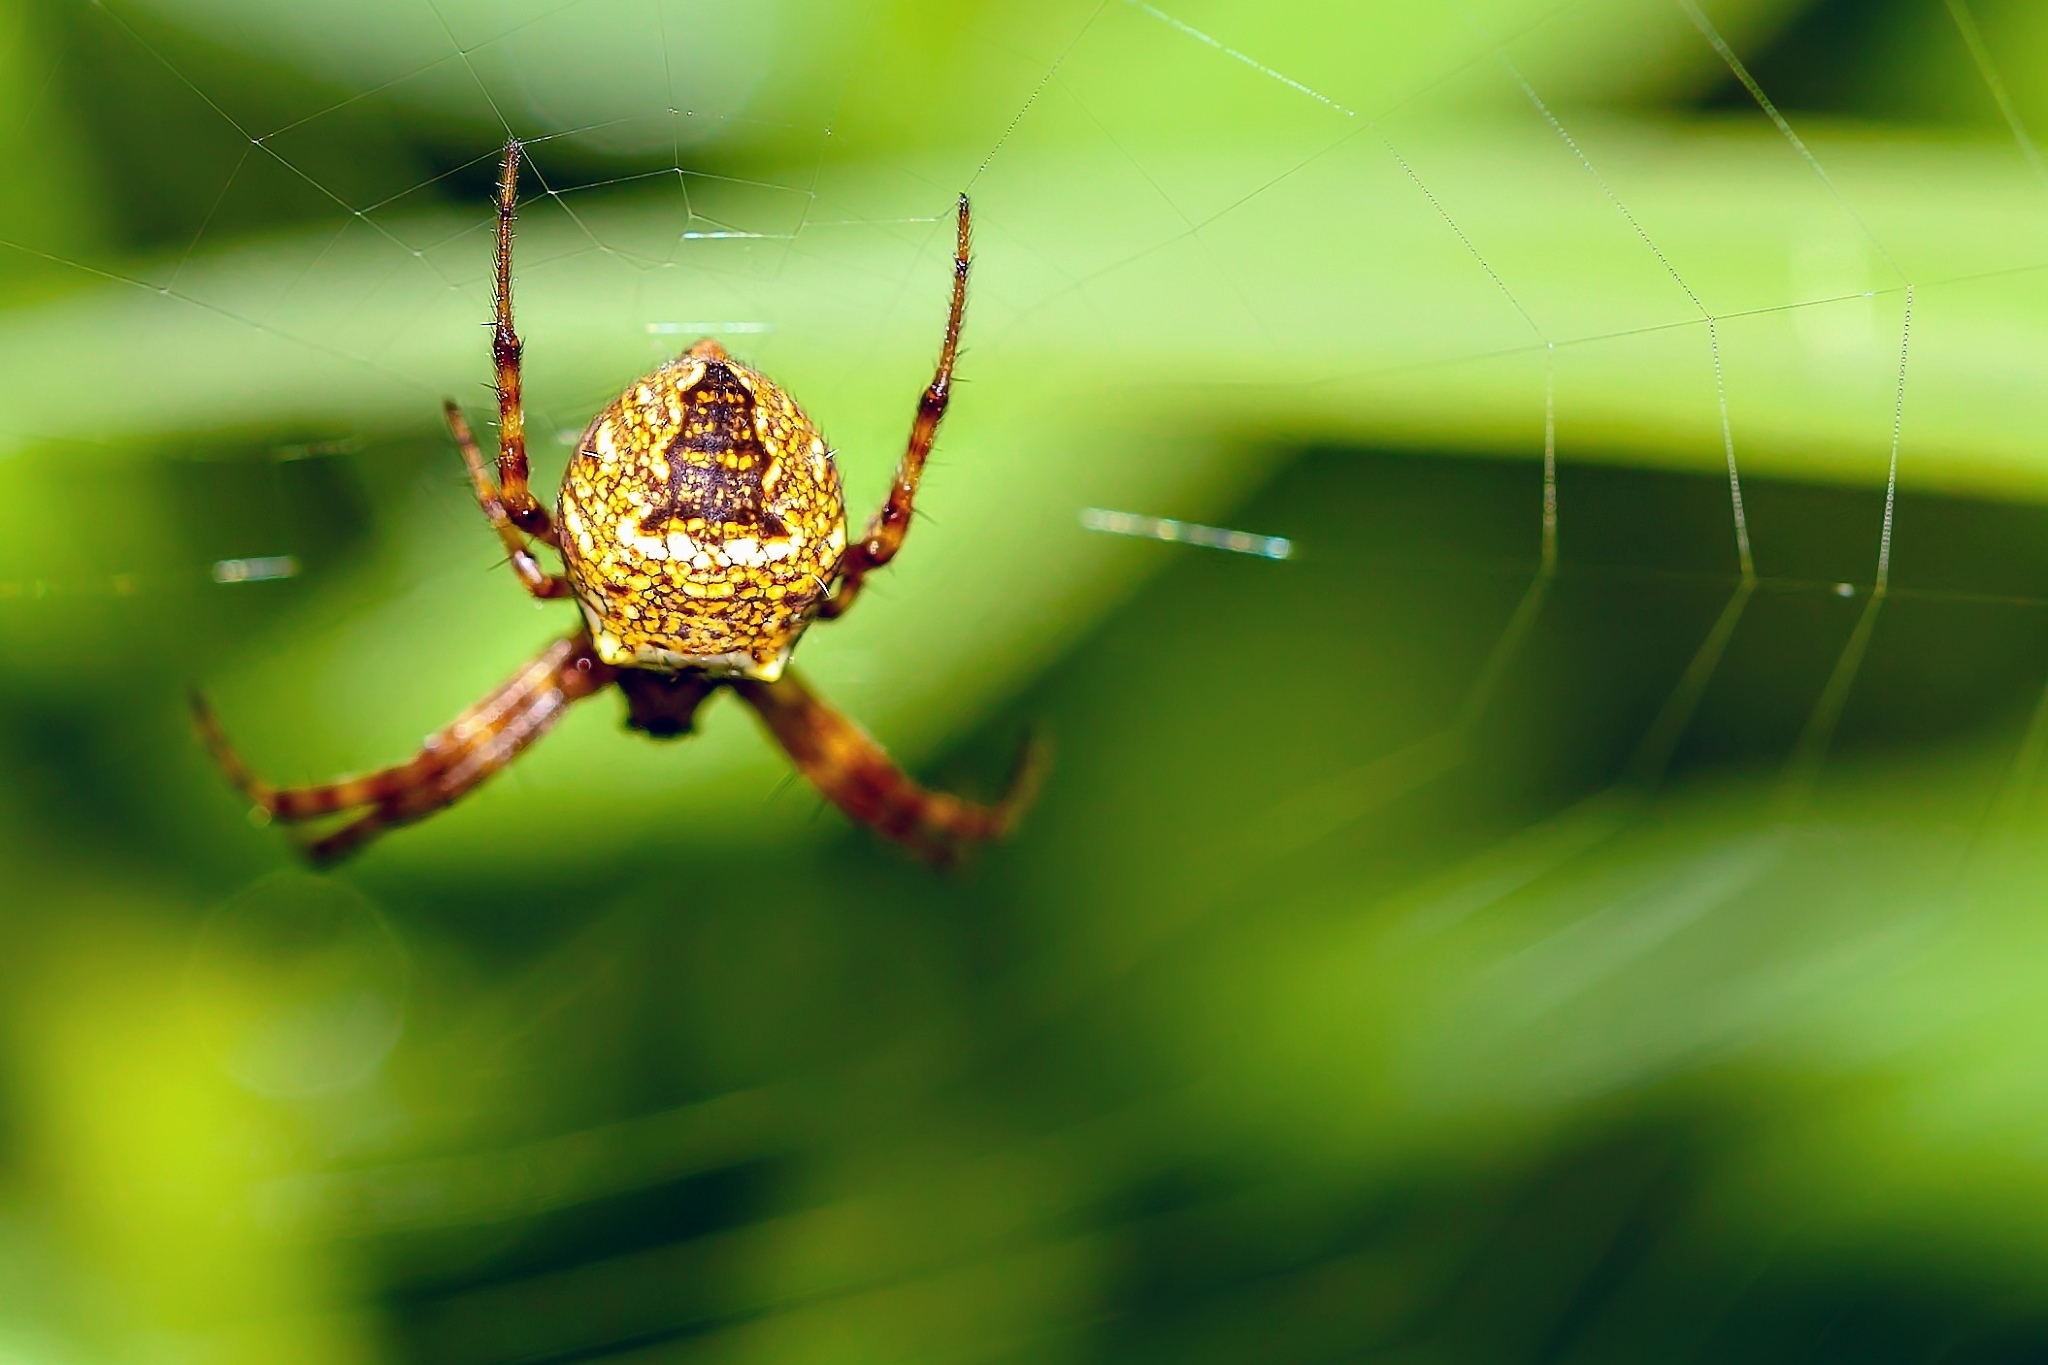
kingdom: Animalia
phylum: Arthropoda
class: Arachnida
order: Araneae
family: Araneidae
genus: Gea
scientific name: Gea heptagon
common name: Orb weavers
